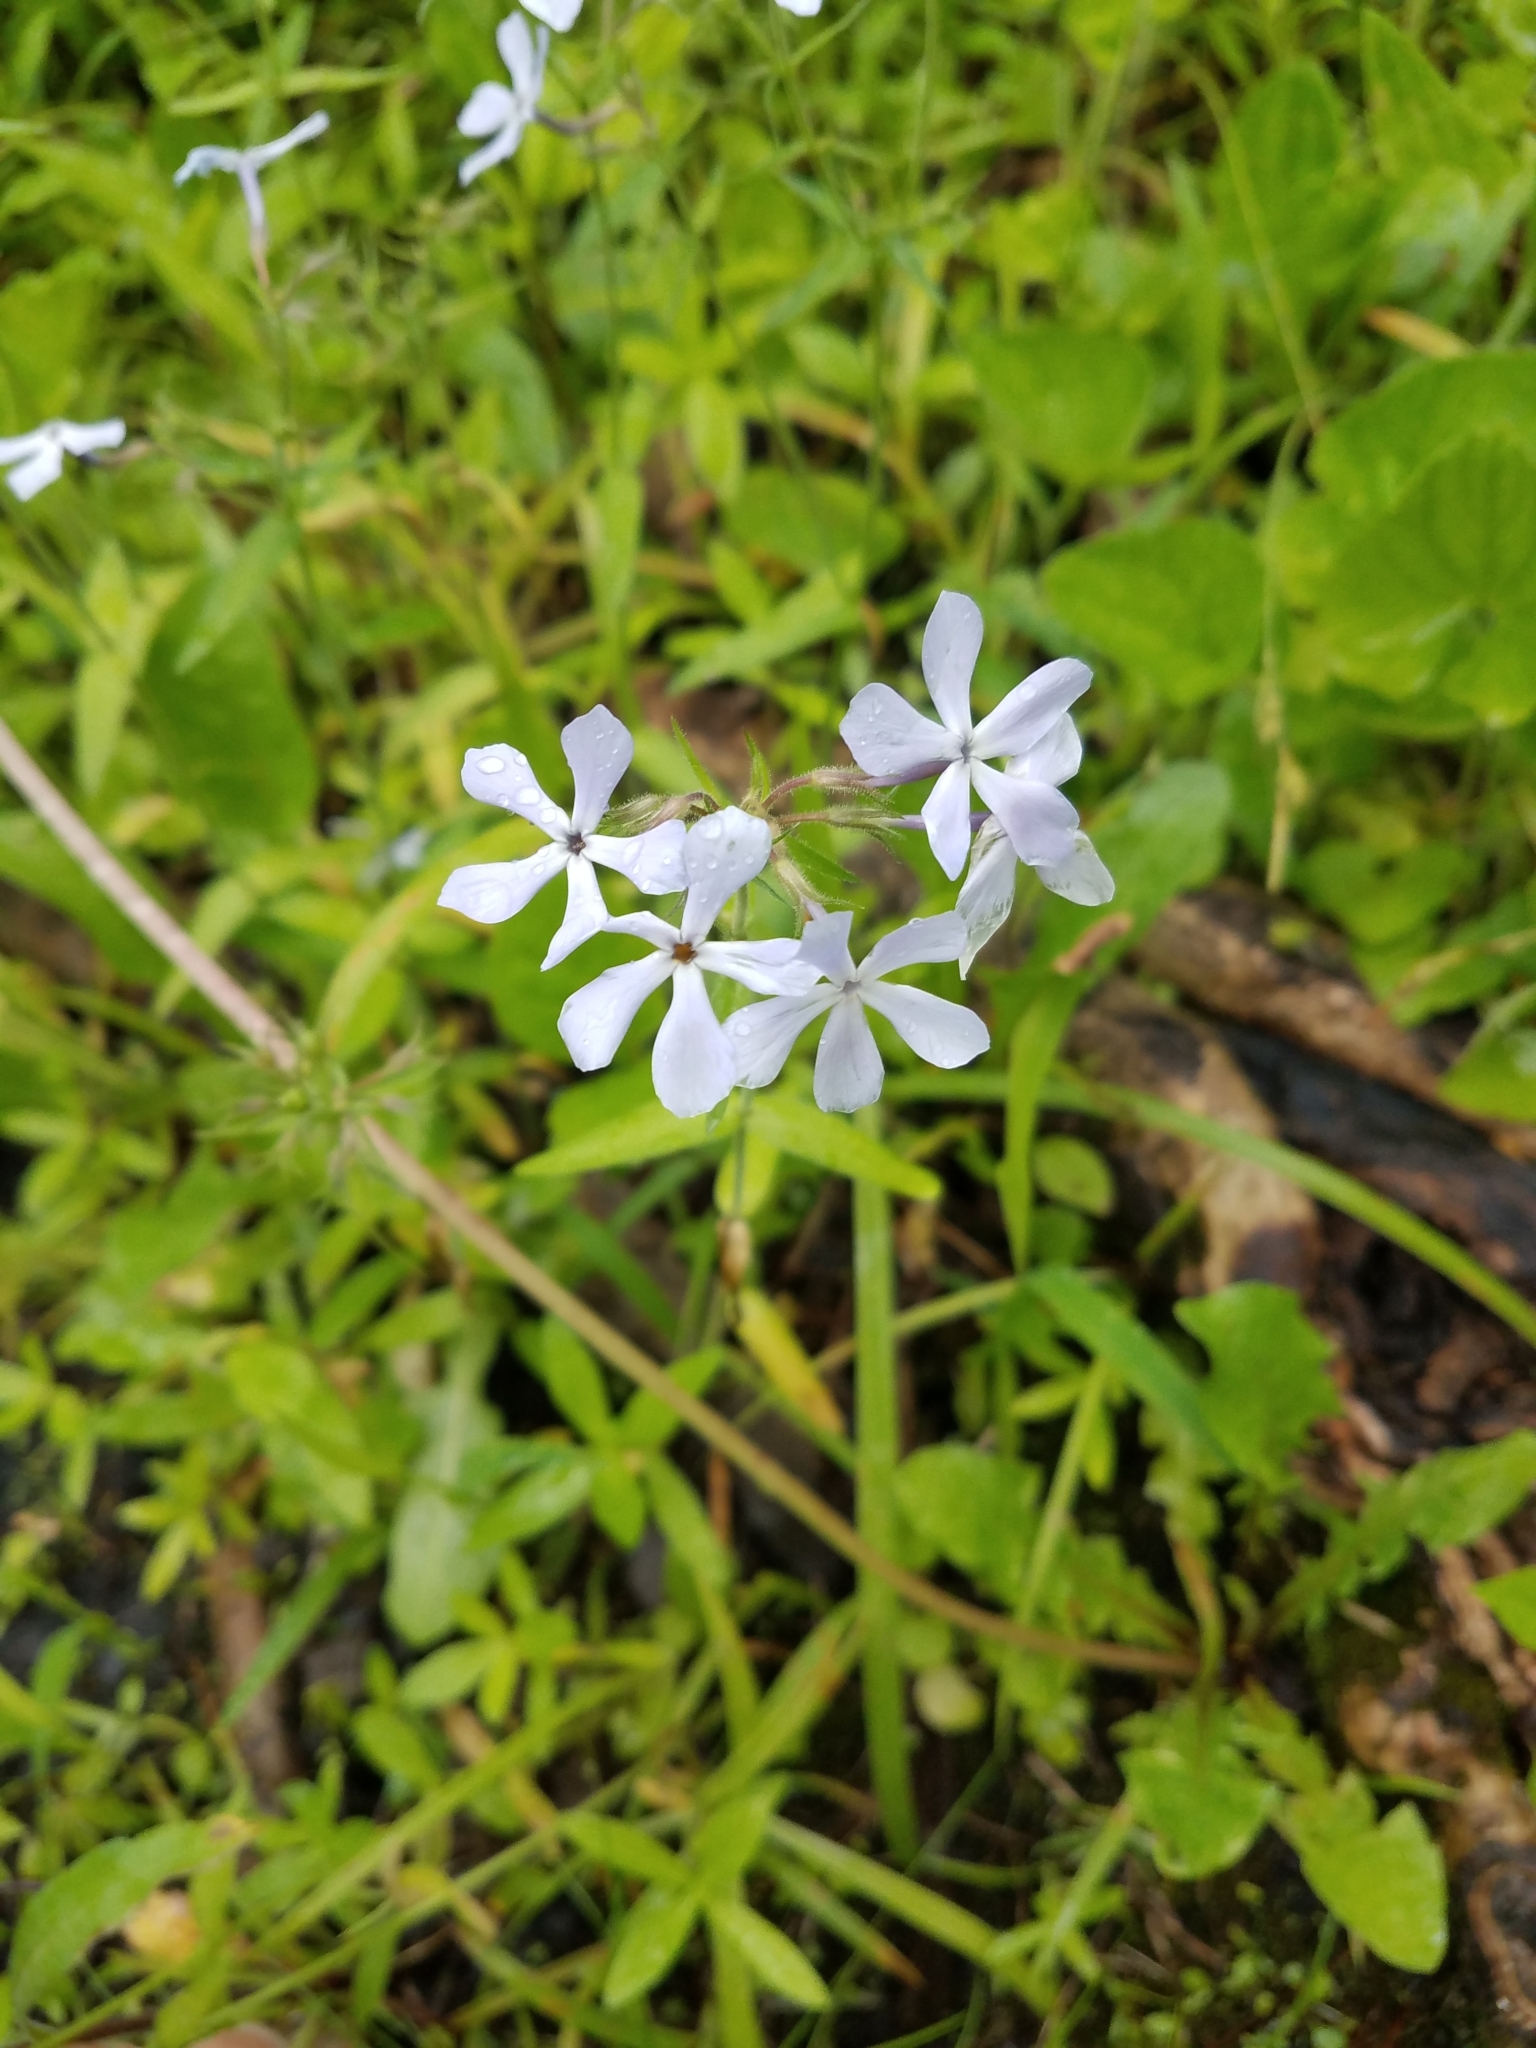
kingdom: Plantae
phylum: Tracheophyta
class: Magnoliopsida
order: Ericales
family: Polemoniaceae
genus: Phlox
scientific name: Phlox divaricata
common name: Blue phlox
